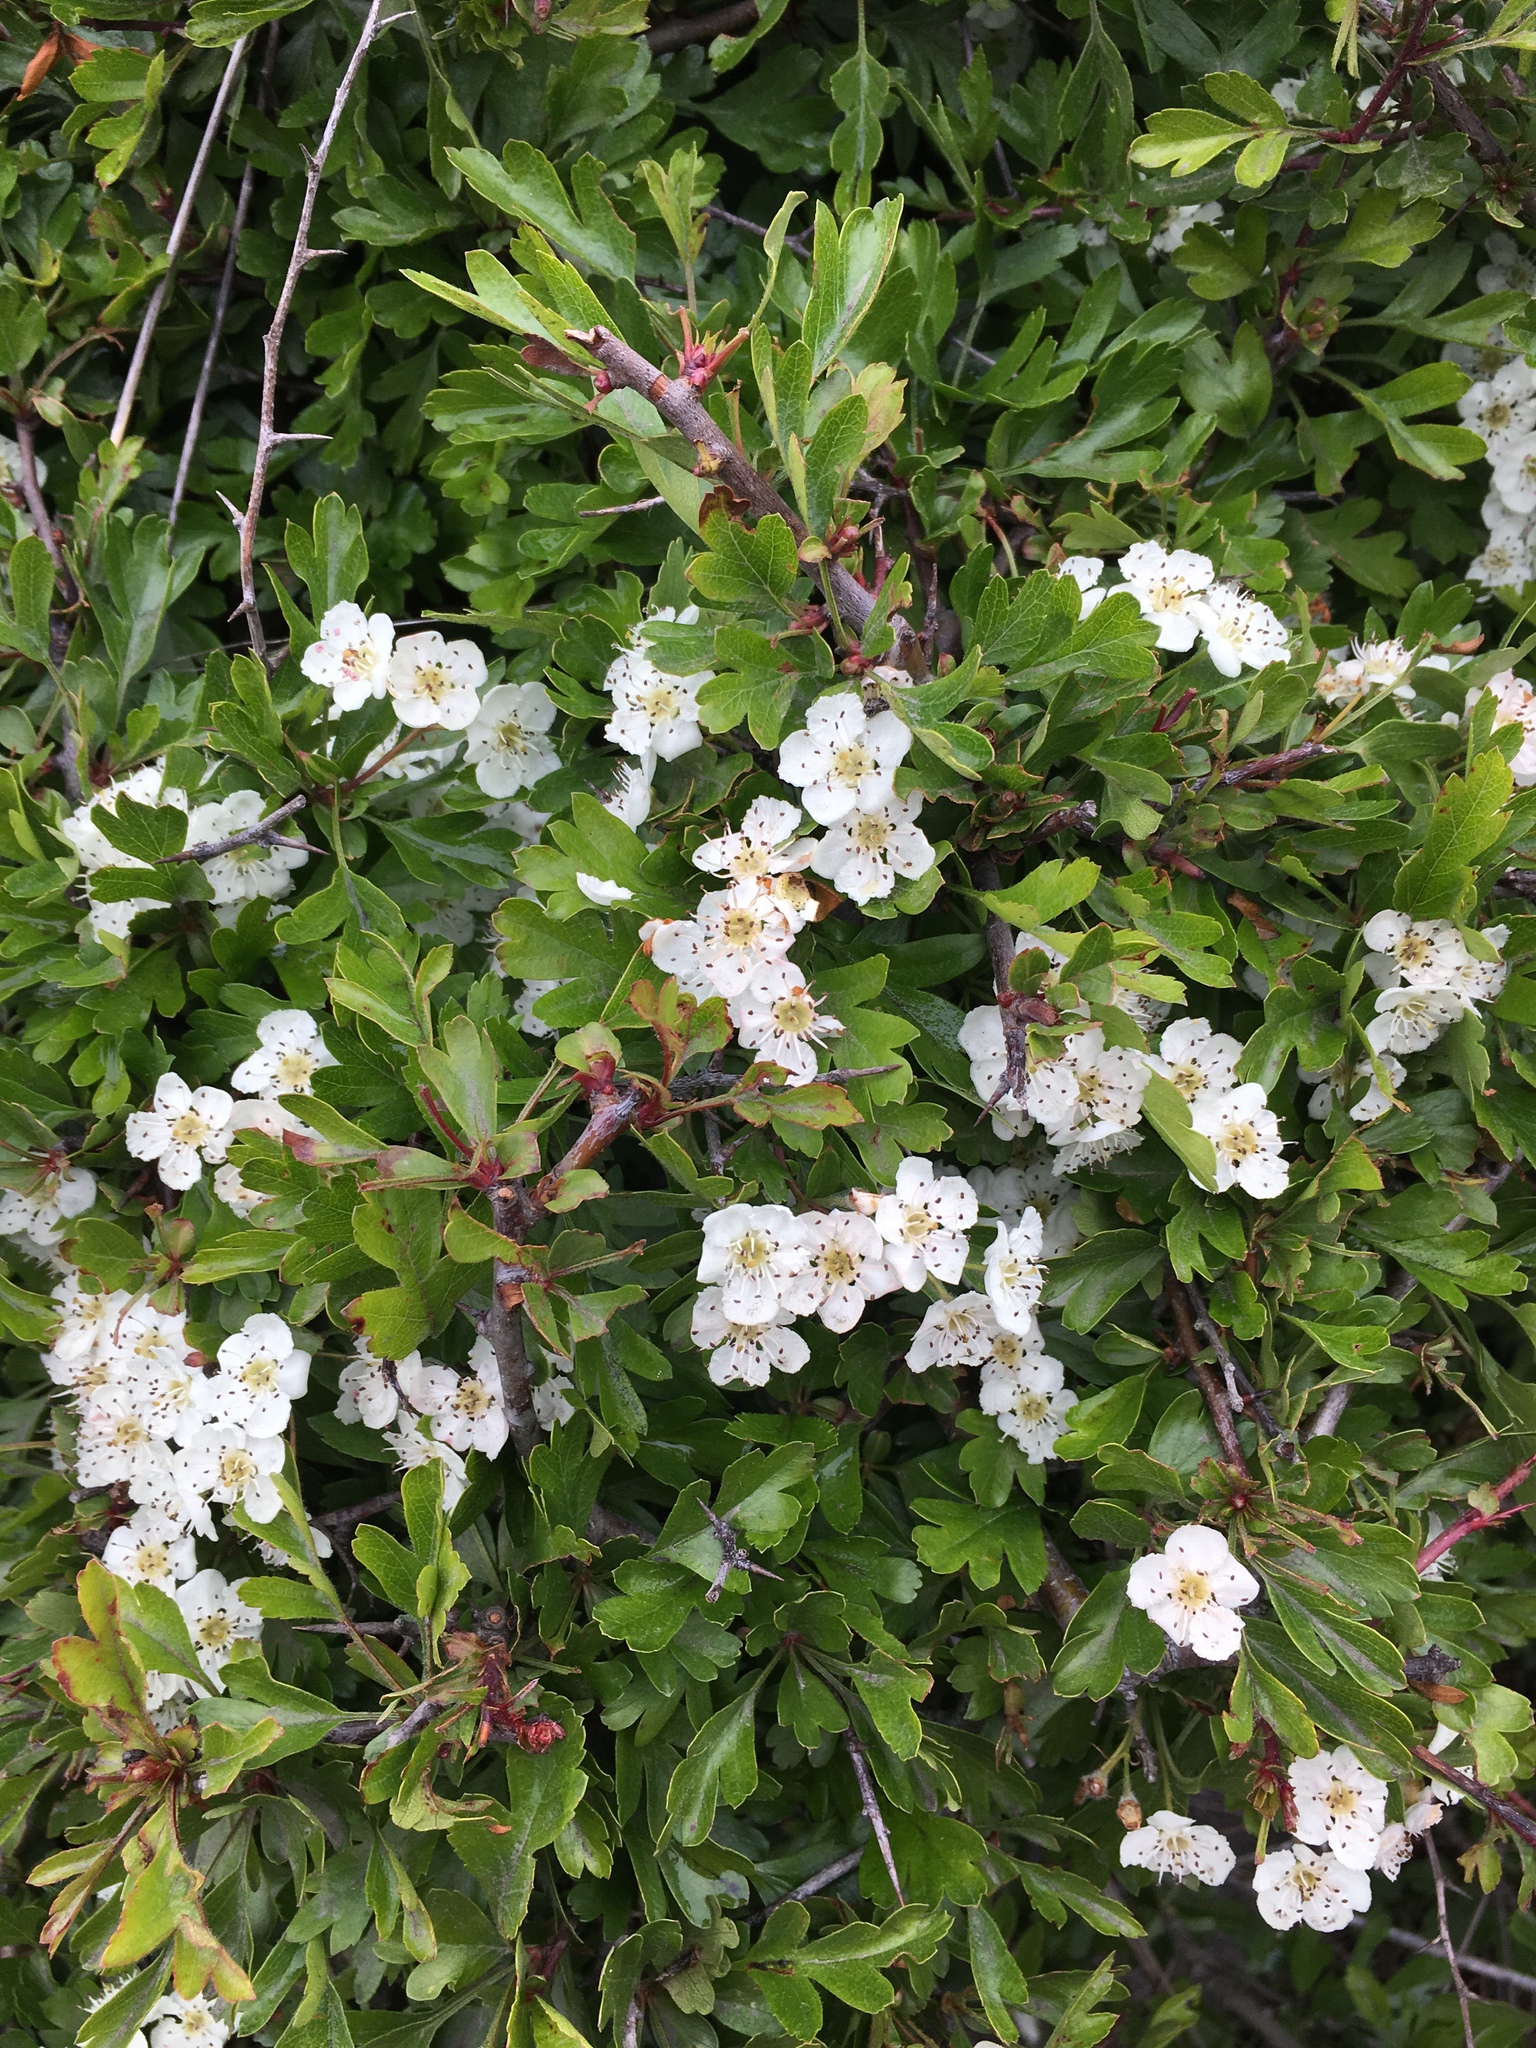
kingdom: Plantae
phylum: Tracheophyta
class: Magnoliopsida
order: Rosales
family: Rosaceae
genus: Crataegus
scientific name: Crataegus monogyna
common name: Hawthorn
